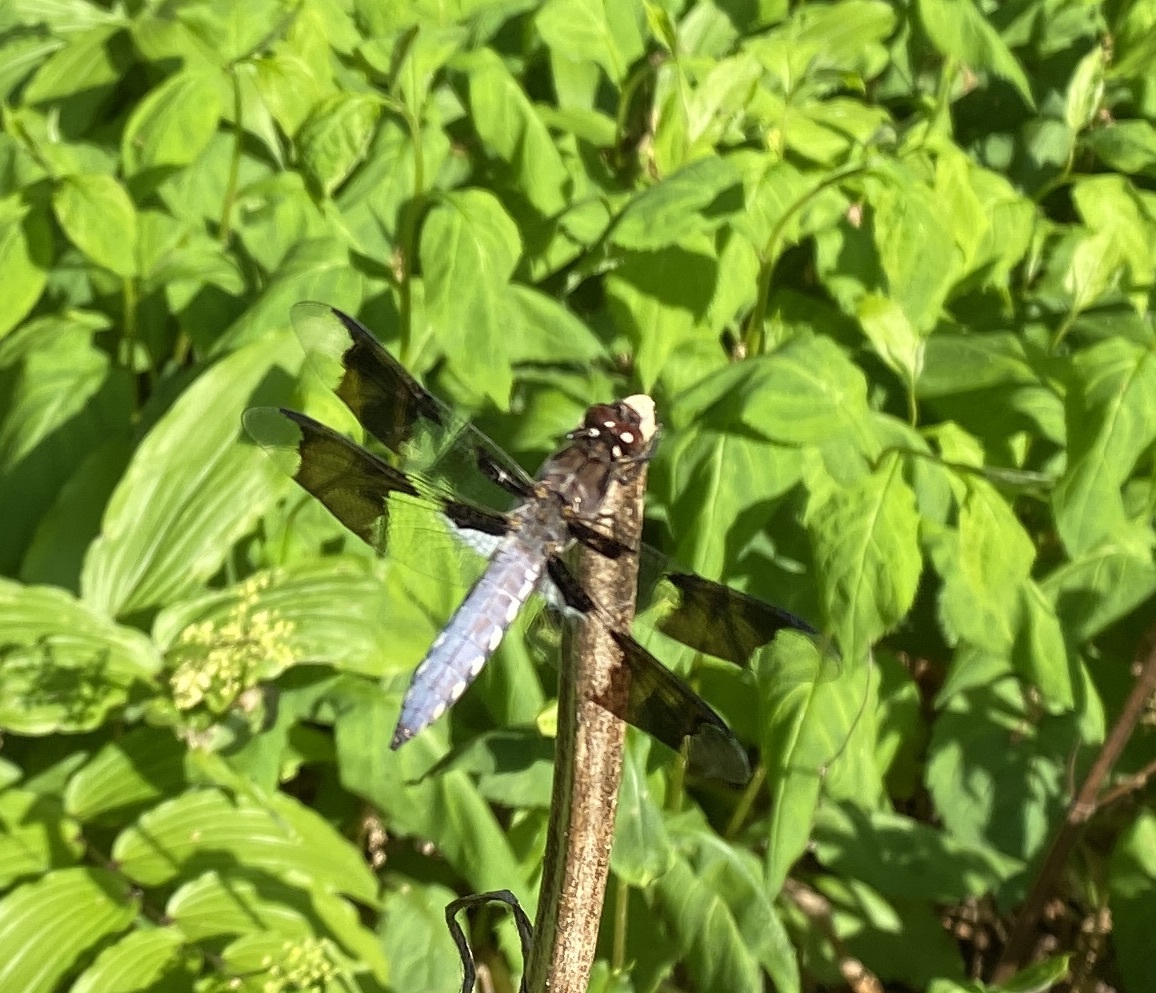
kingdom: Animalia
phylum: Arthropoda
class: Insecta
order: Odonata
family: Libellulidae
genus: Plathemis
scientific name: Plathemis lydia
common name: Common whitetail
